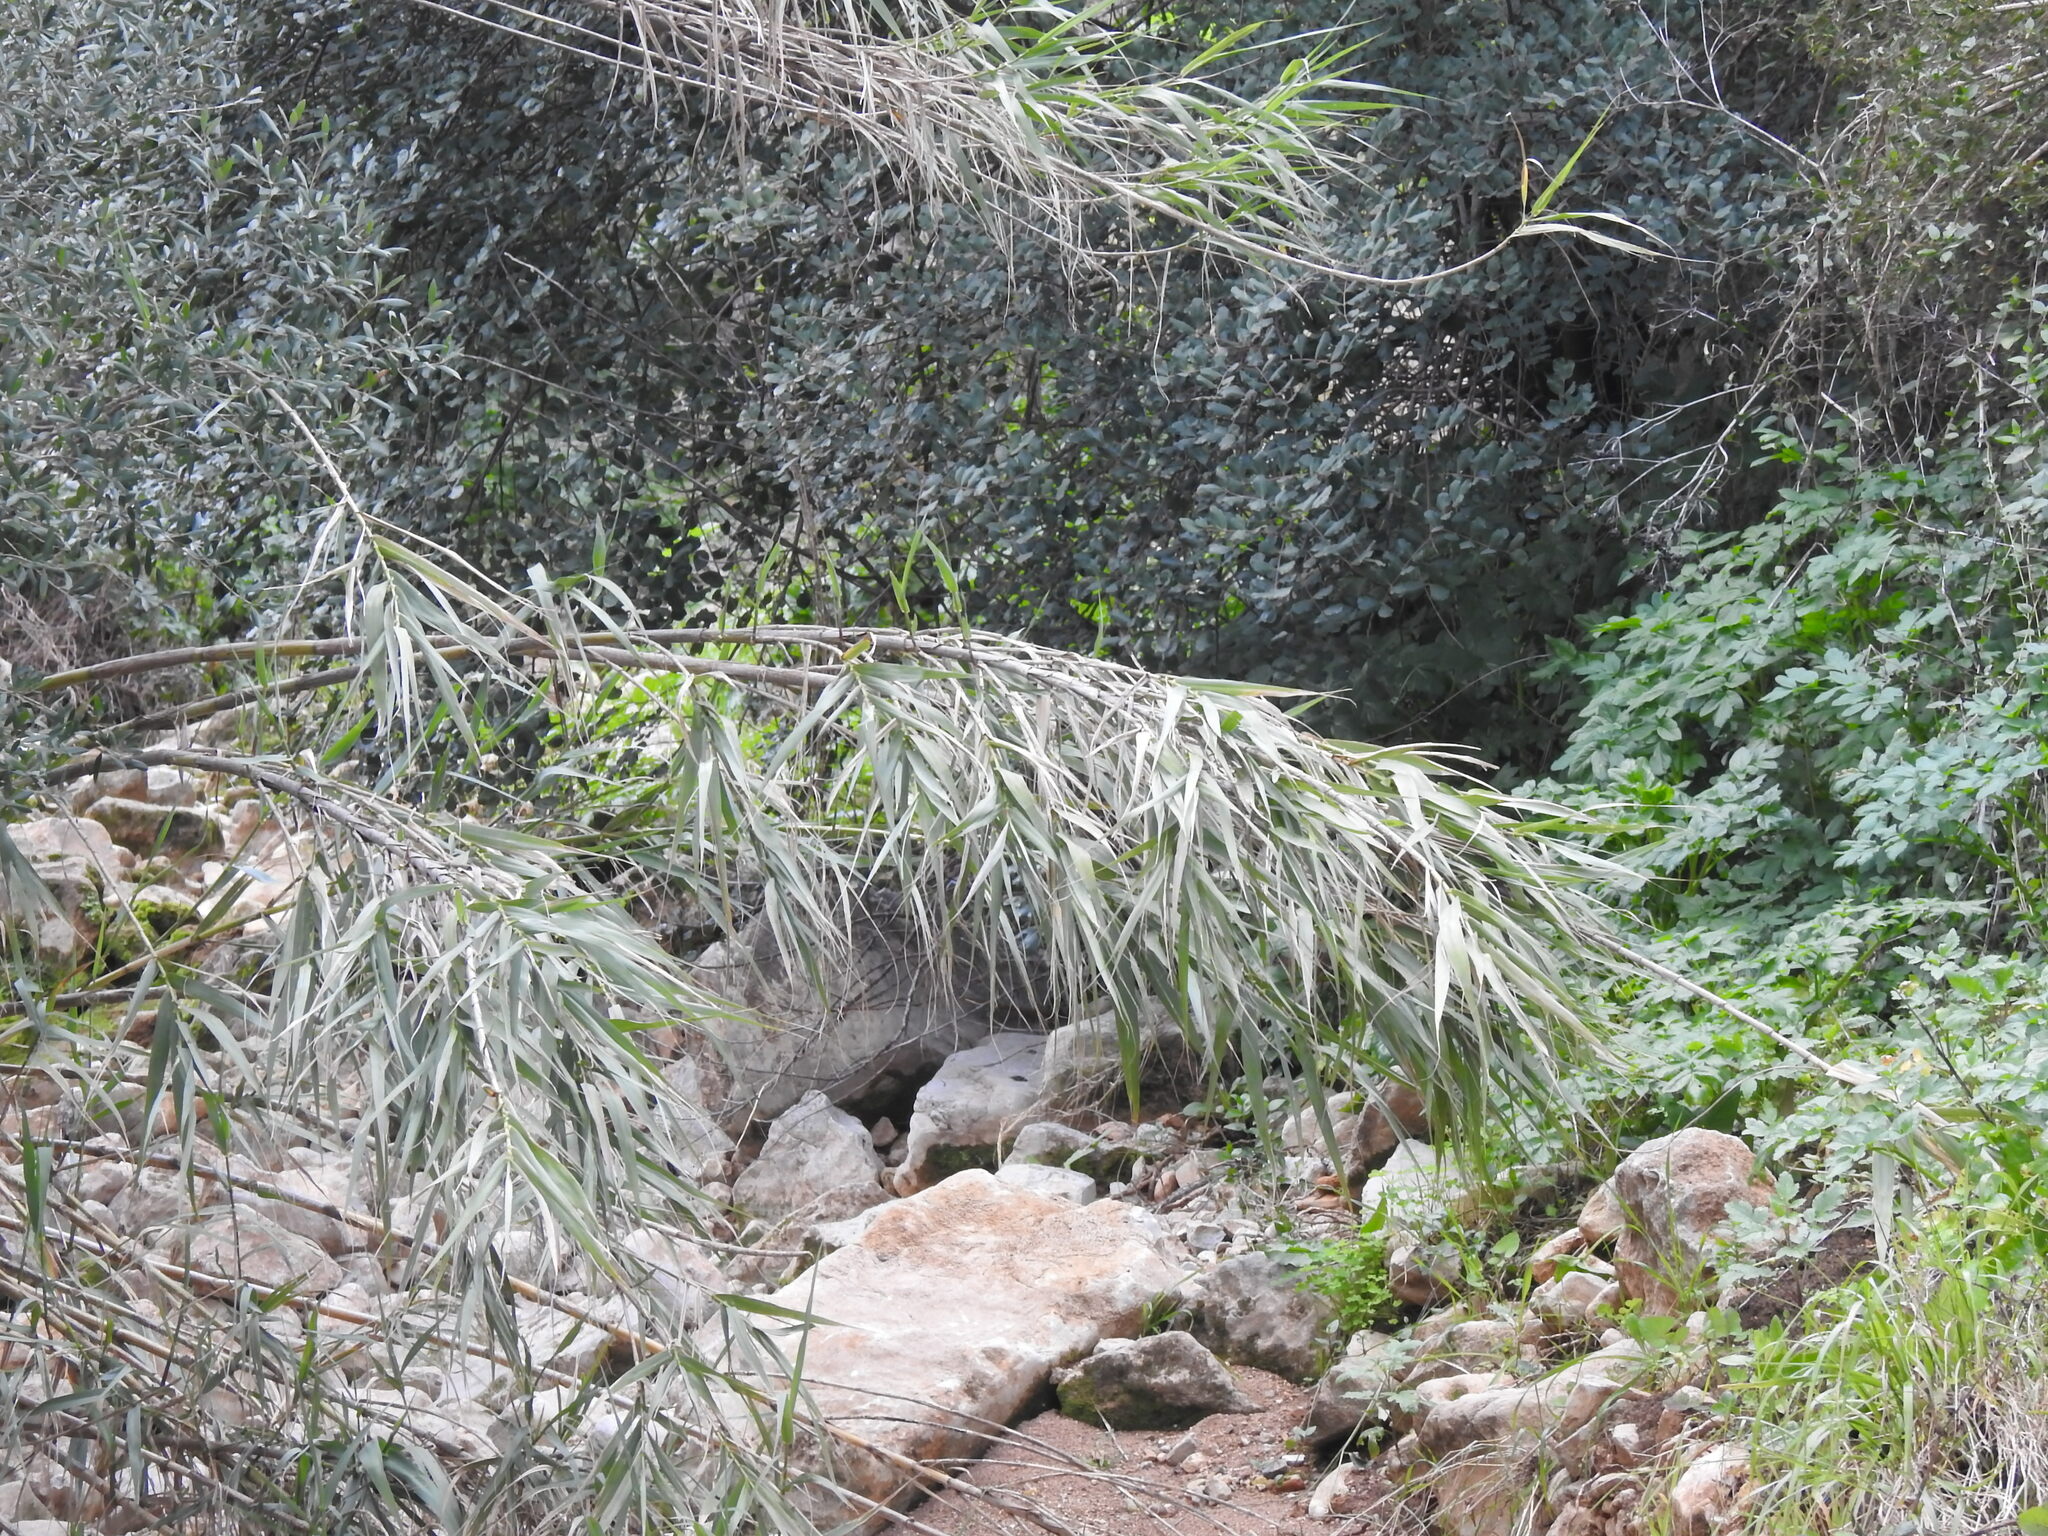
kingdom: Plantae
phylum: Tracheophyta
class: Liliopsida
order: Poales
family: Poaceae
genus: Arundo
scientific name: Arundo donax
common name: Giant reed
